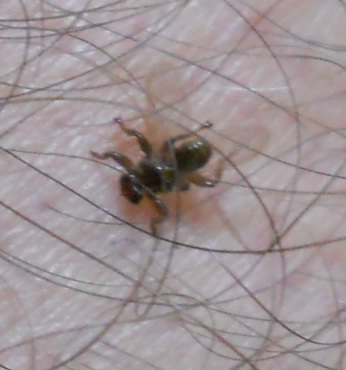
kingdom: Animalia
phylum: Arthropoda
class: Insecta
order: Diptera
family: Hippoboscidae
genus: Lipoptena
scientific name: Lipoptena cervi
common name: Deer ked
